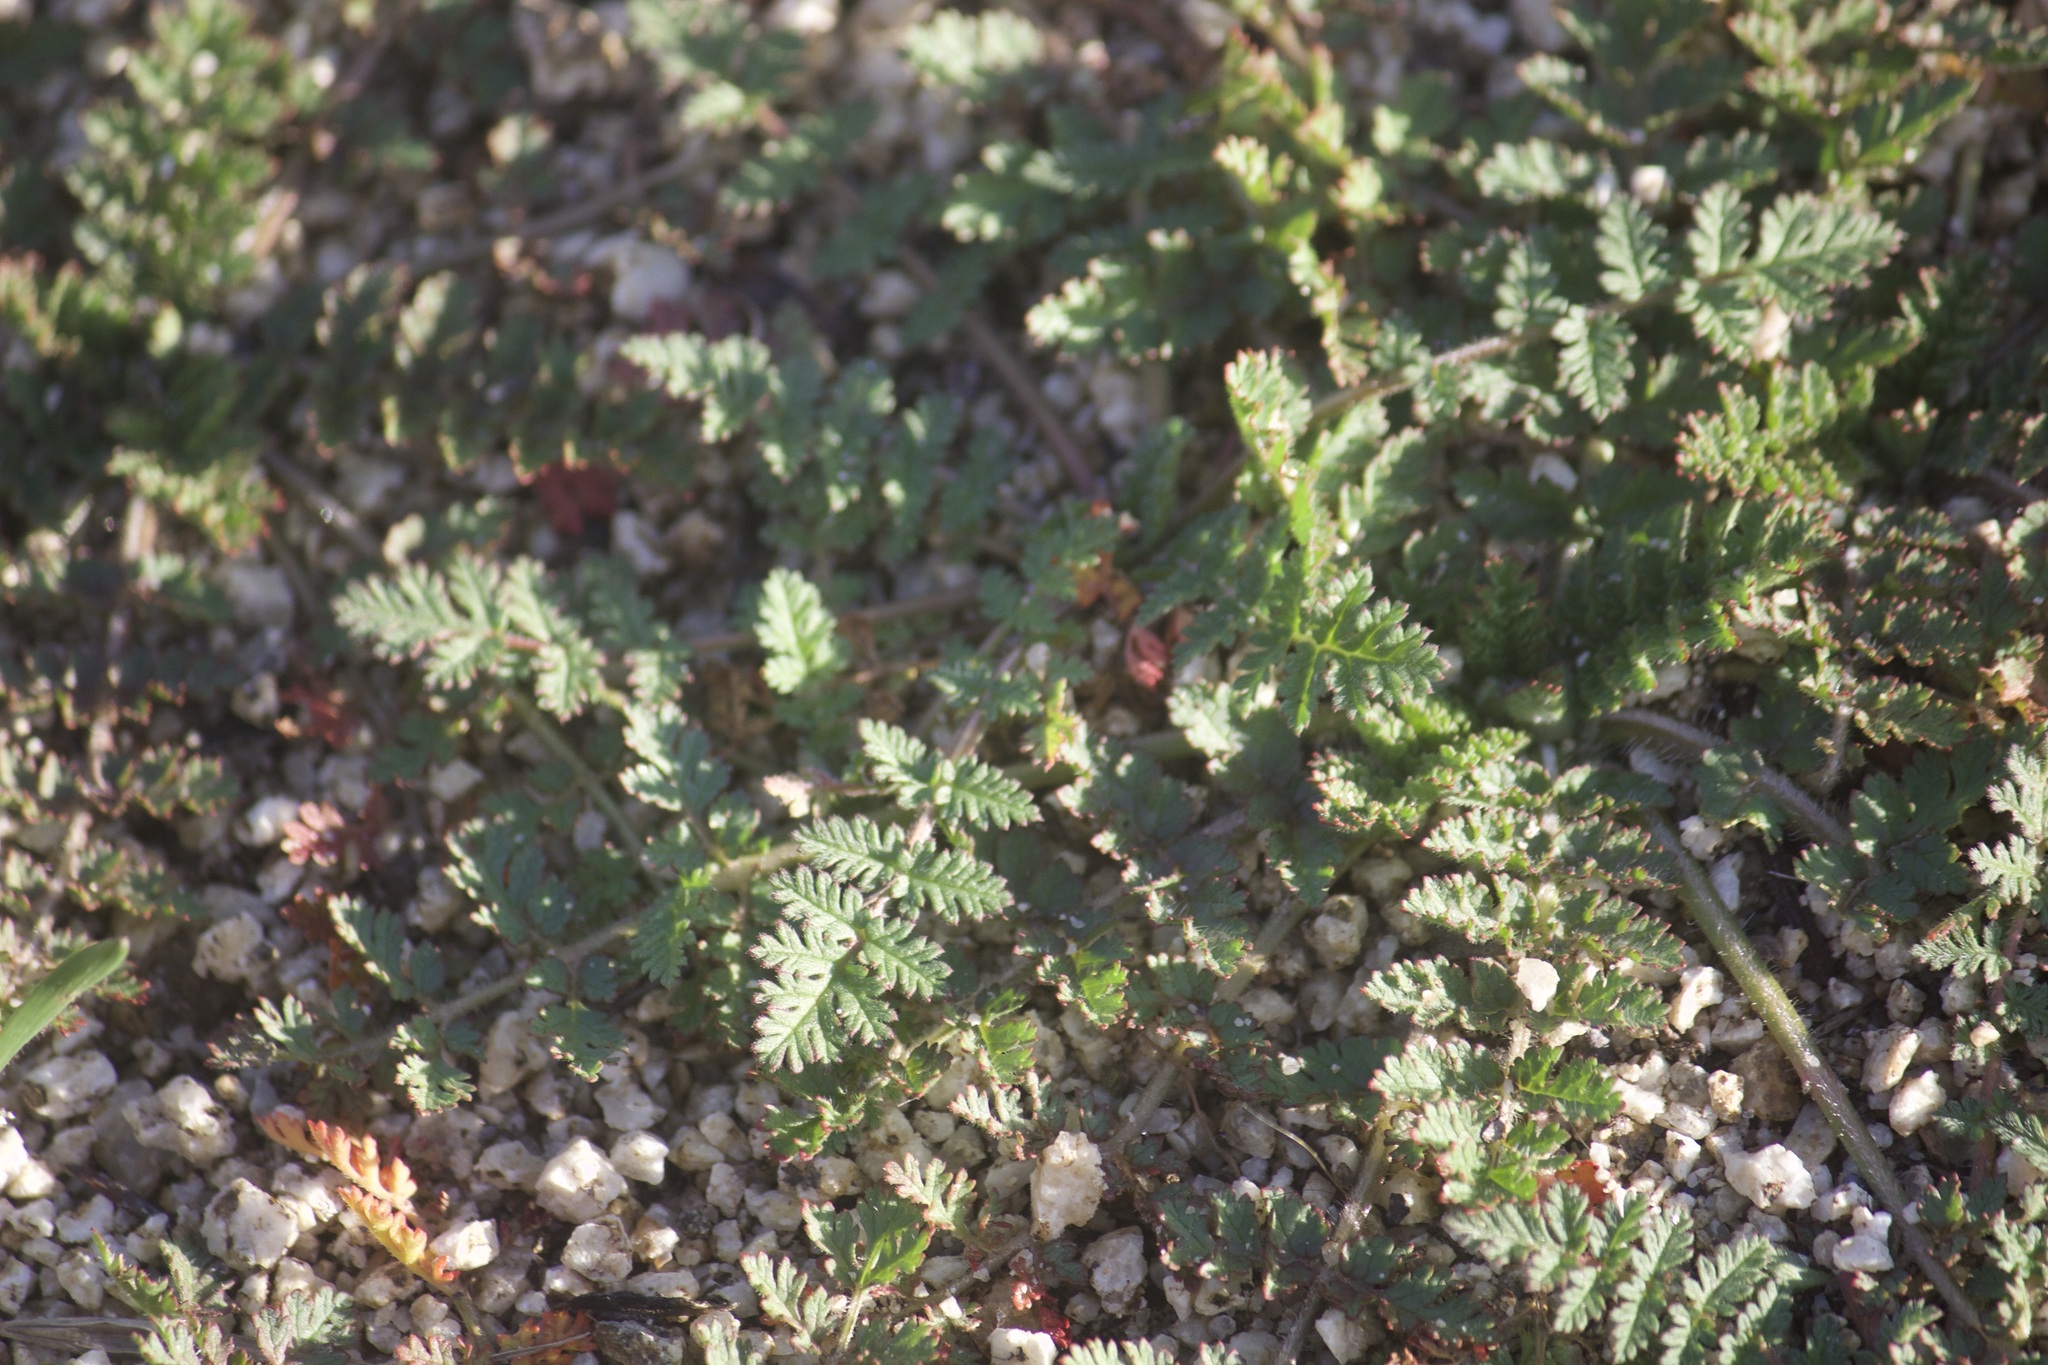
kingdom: Plantae
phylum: Tracheophyta
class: Magnoliopsida
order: Geraniales
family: Geraniaceae
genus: Erodium
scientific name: Erodium cicutarium
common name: Common stork's-bill
